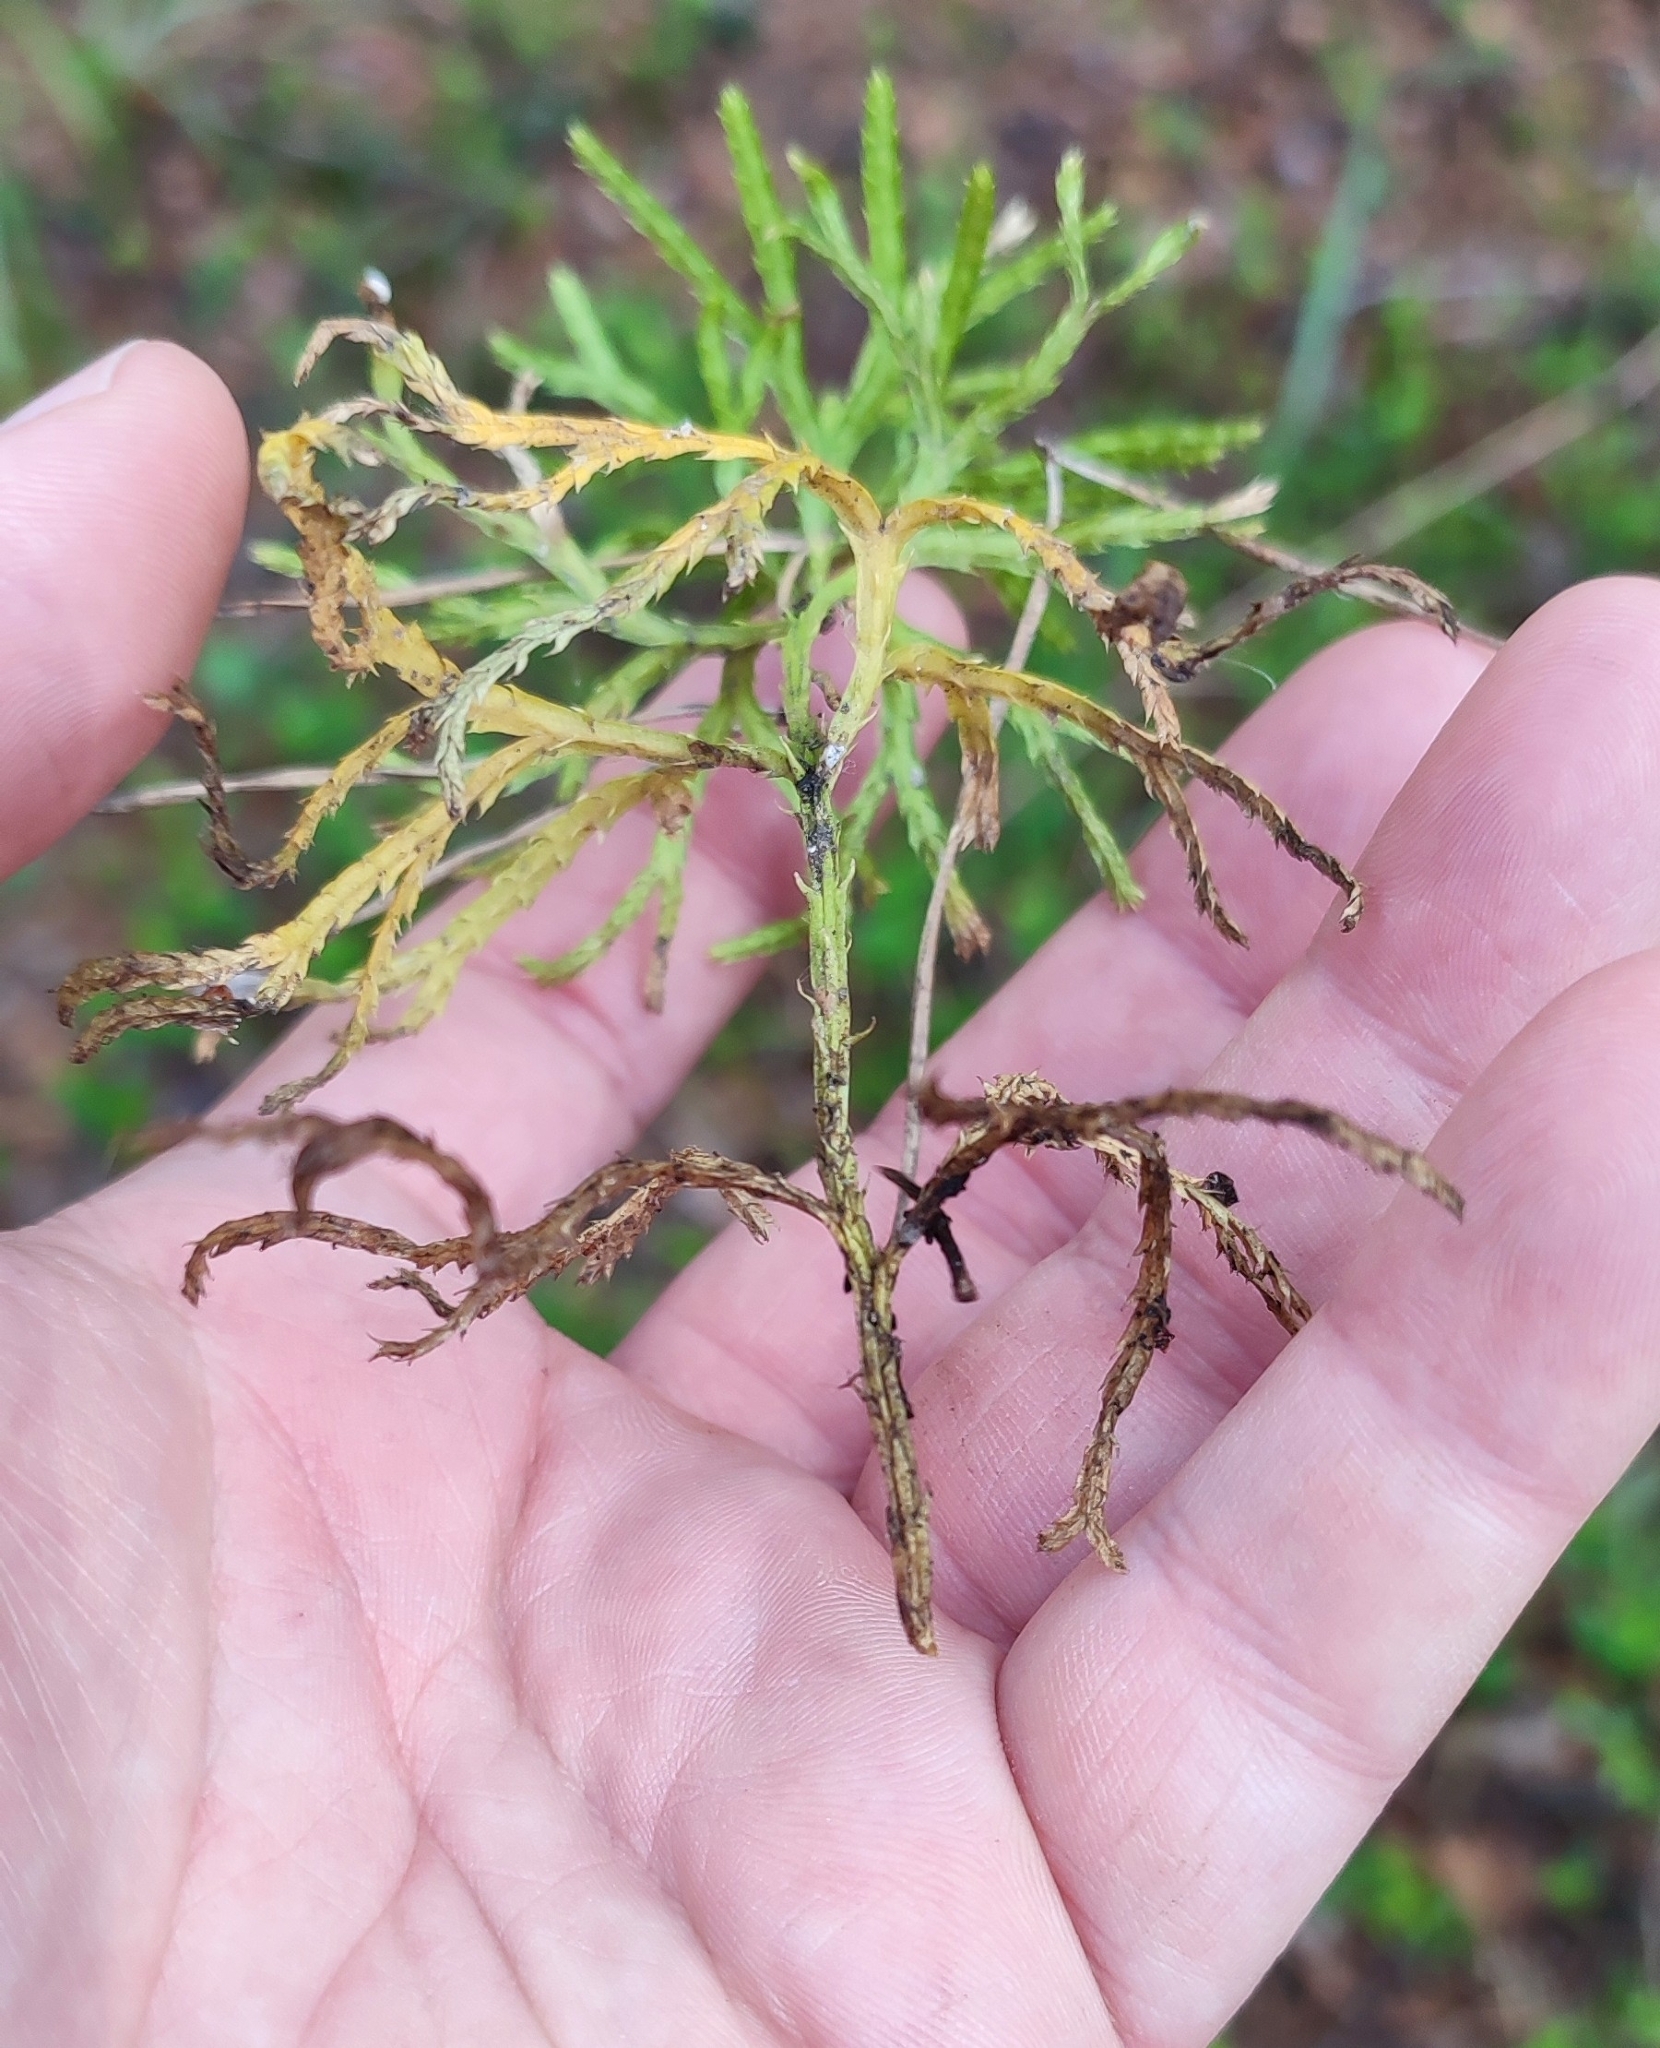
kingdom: Plantae
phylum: Tracheophyta
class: Lycopodiopsida
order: Lycopodiales
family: Lycopodiaceae
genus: Diphasiastrum
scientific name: Diphasiastrum complanatum
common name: Northern running-pine
